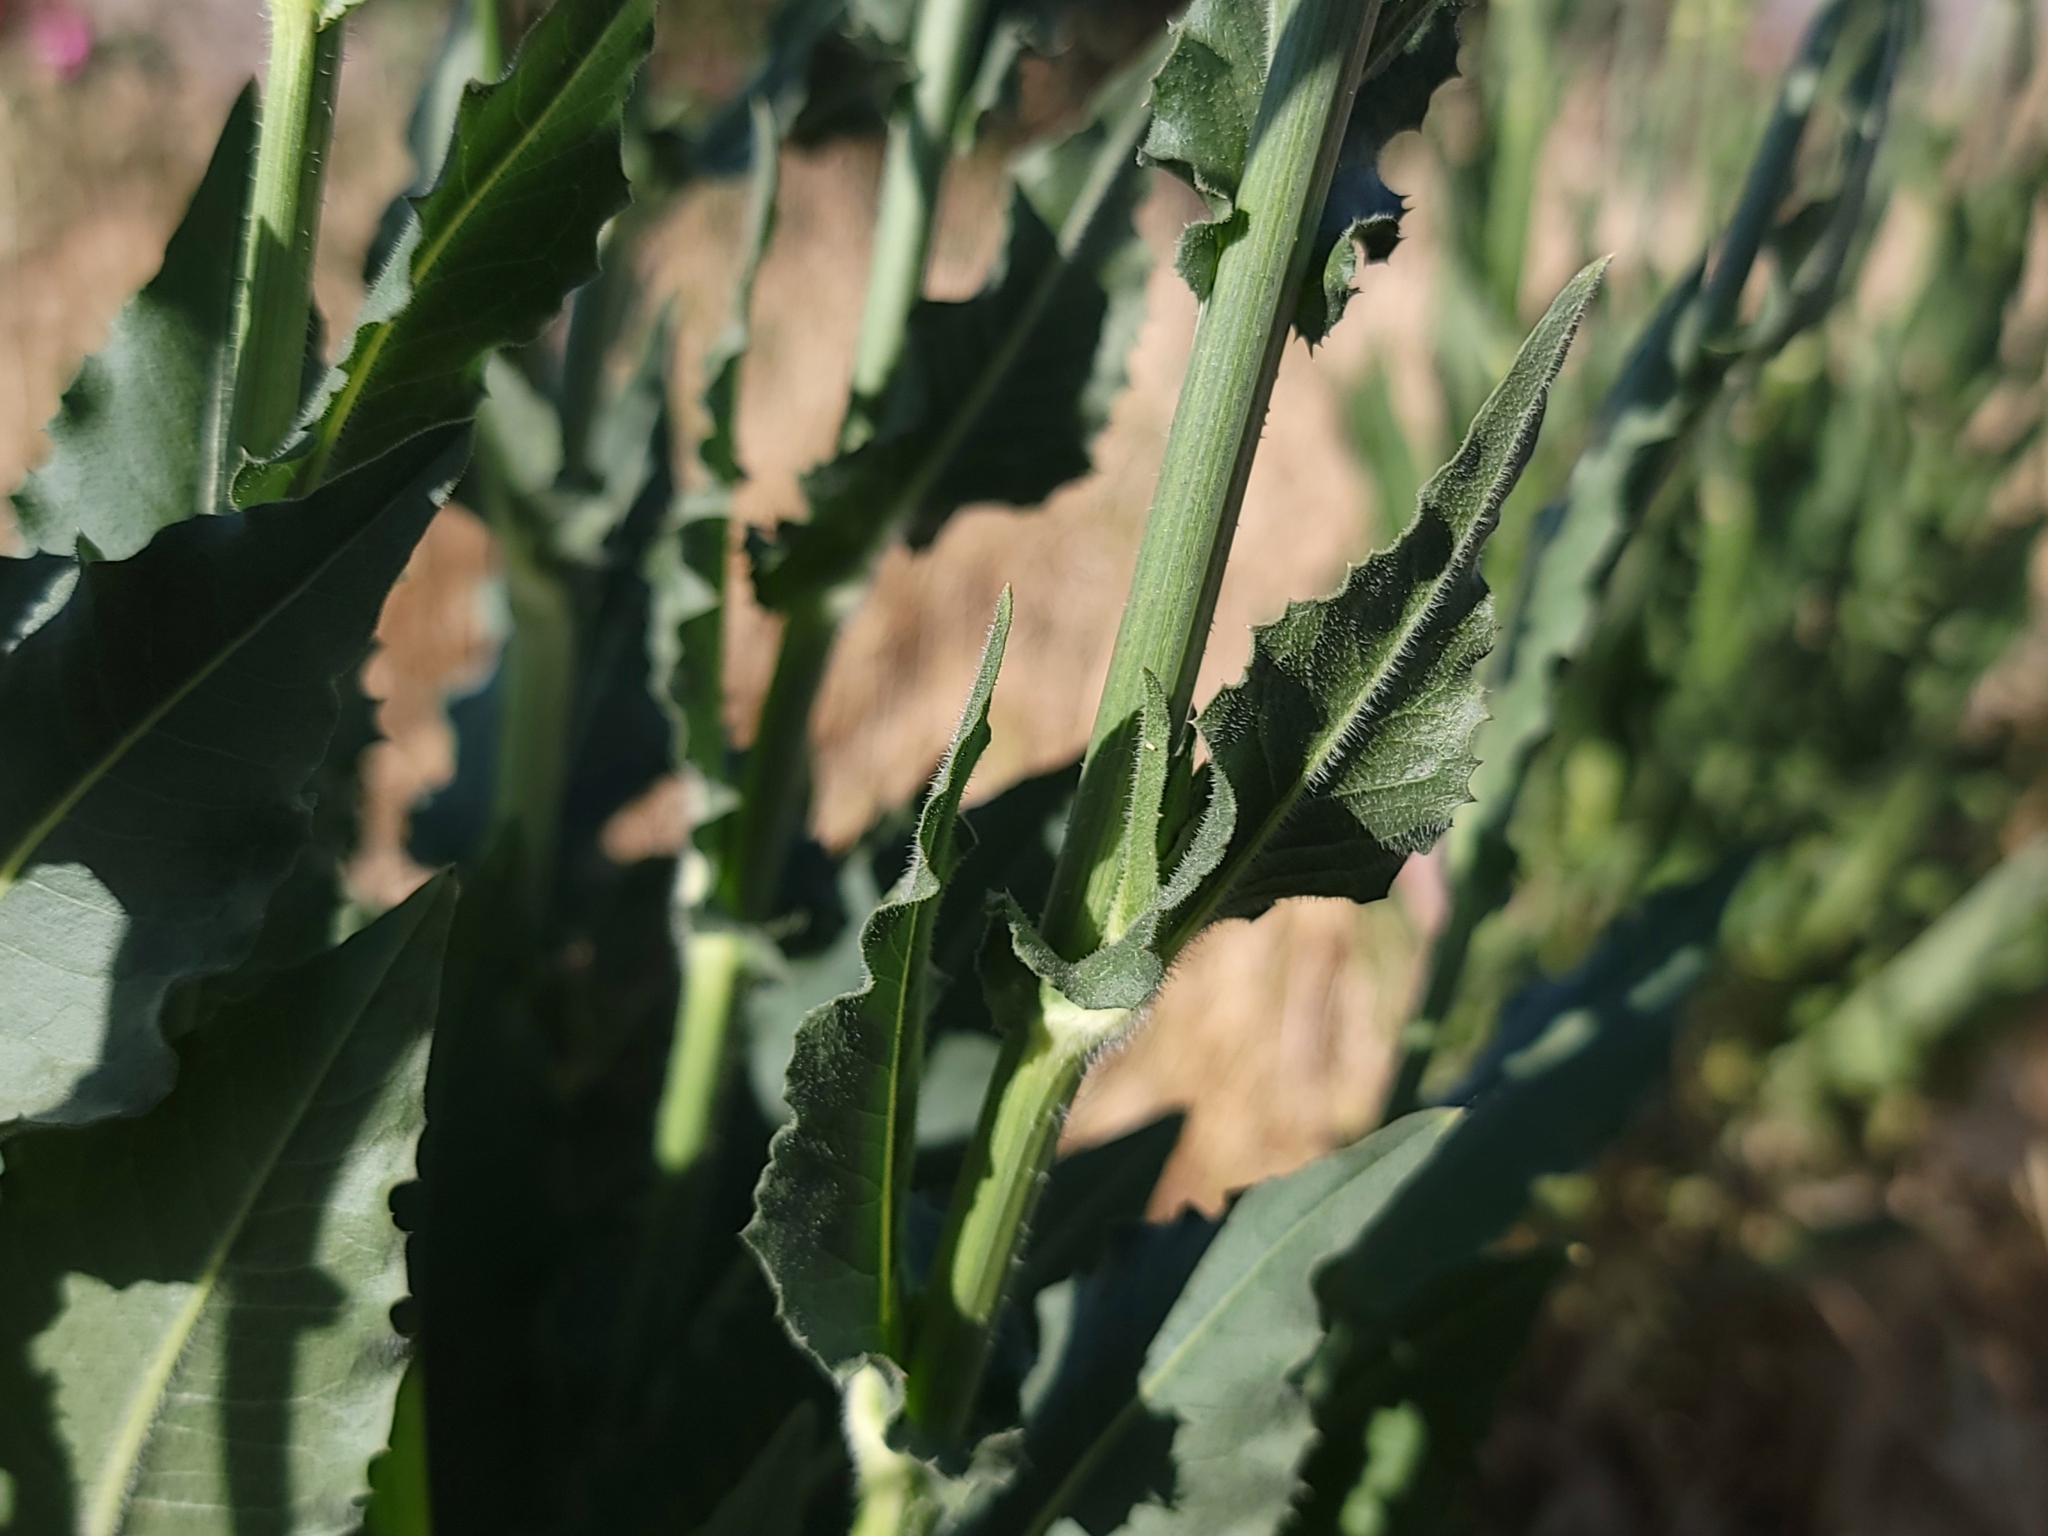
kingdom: Plantae
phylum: Tracheophyta
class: Magnoliopsida
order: Asterales
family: Asteraceae
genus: Cichorium
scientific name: Cichorium intybus
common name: Chicory
